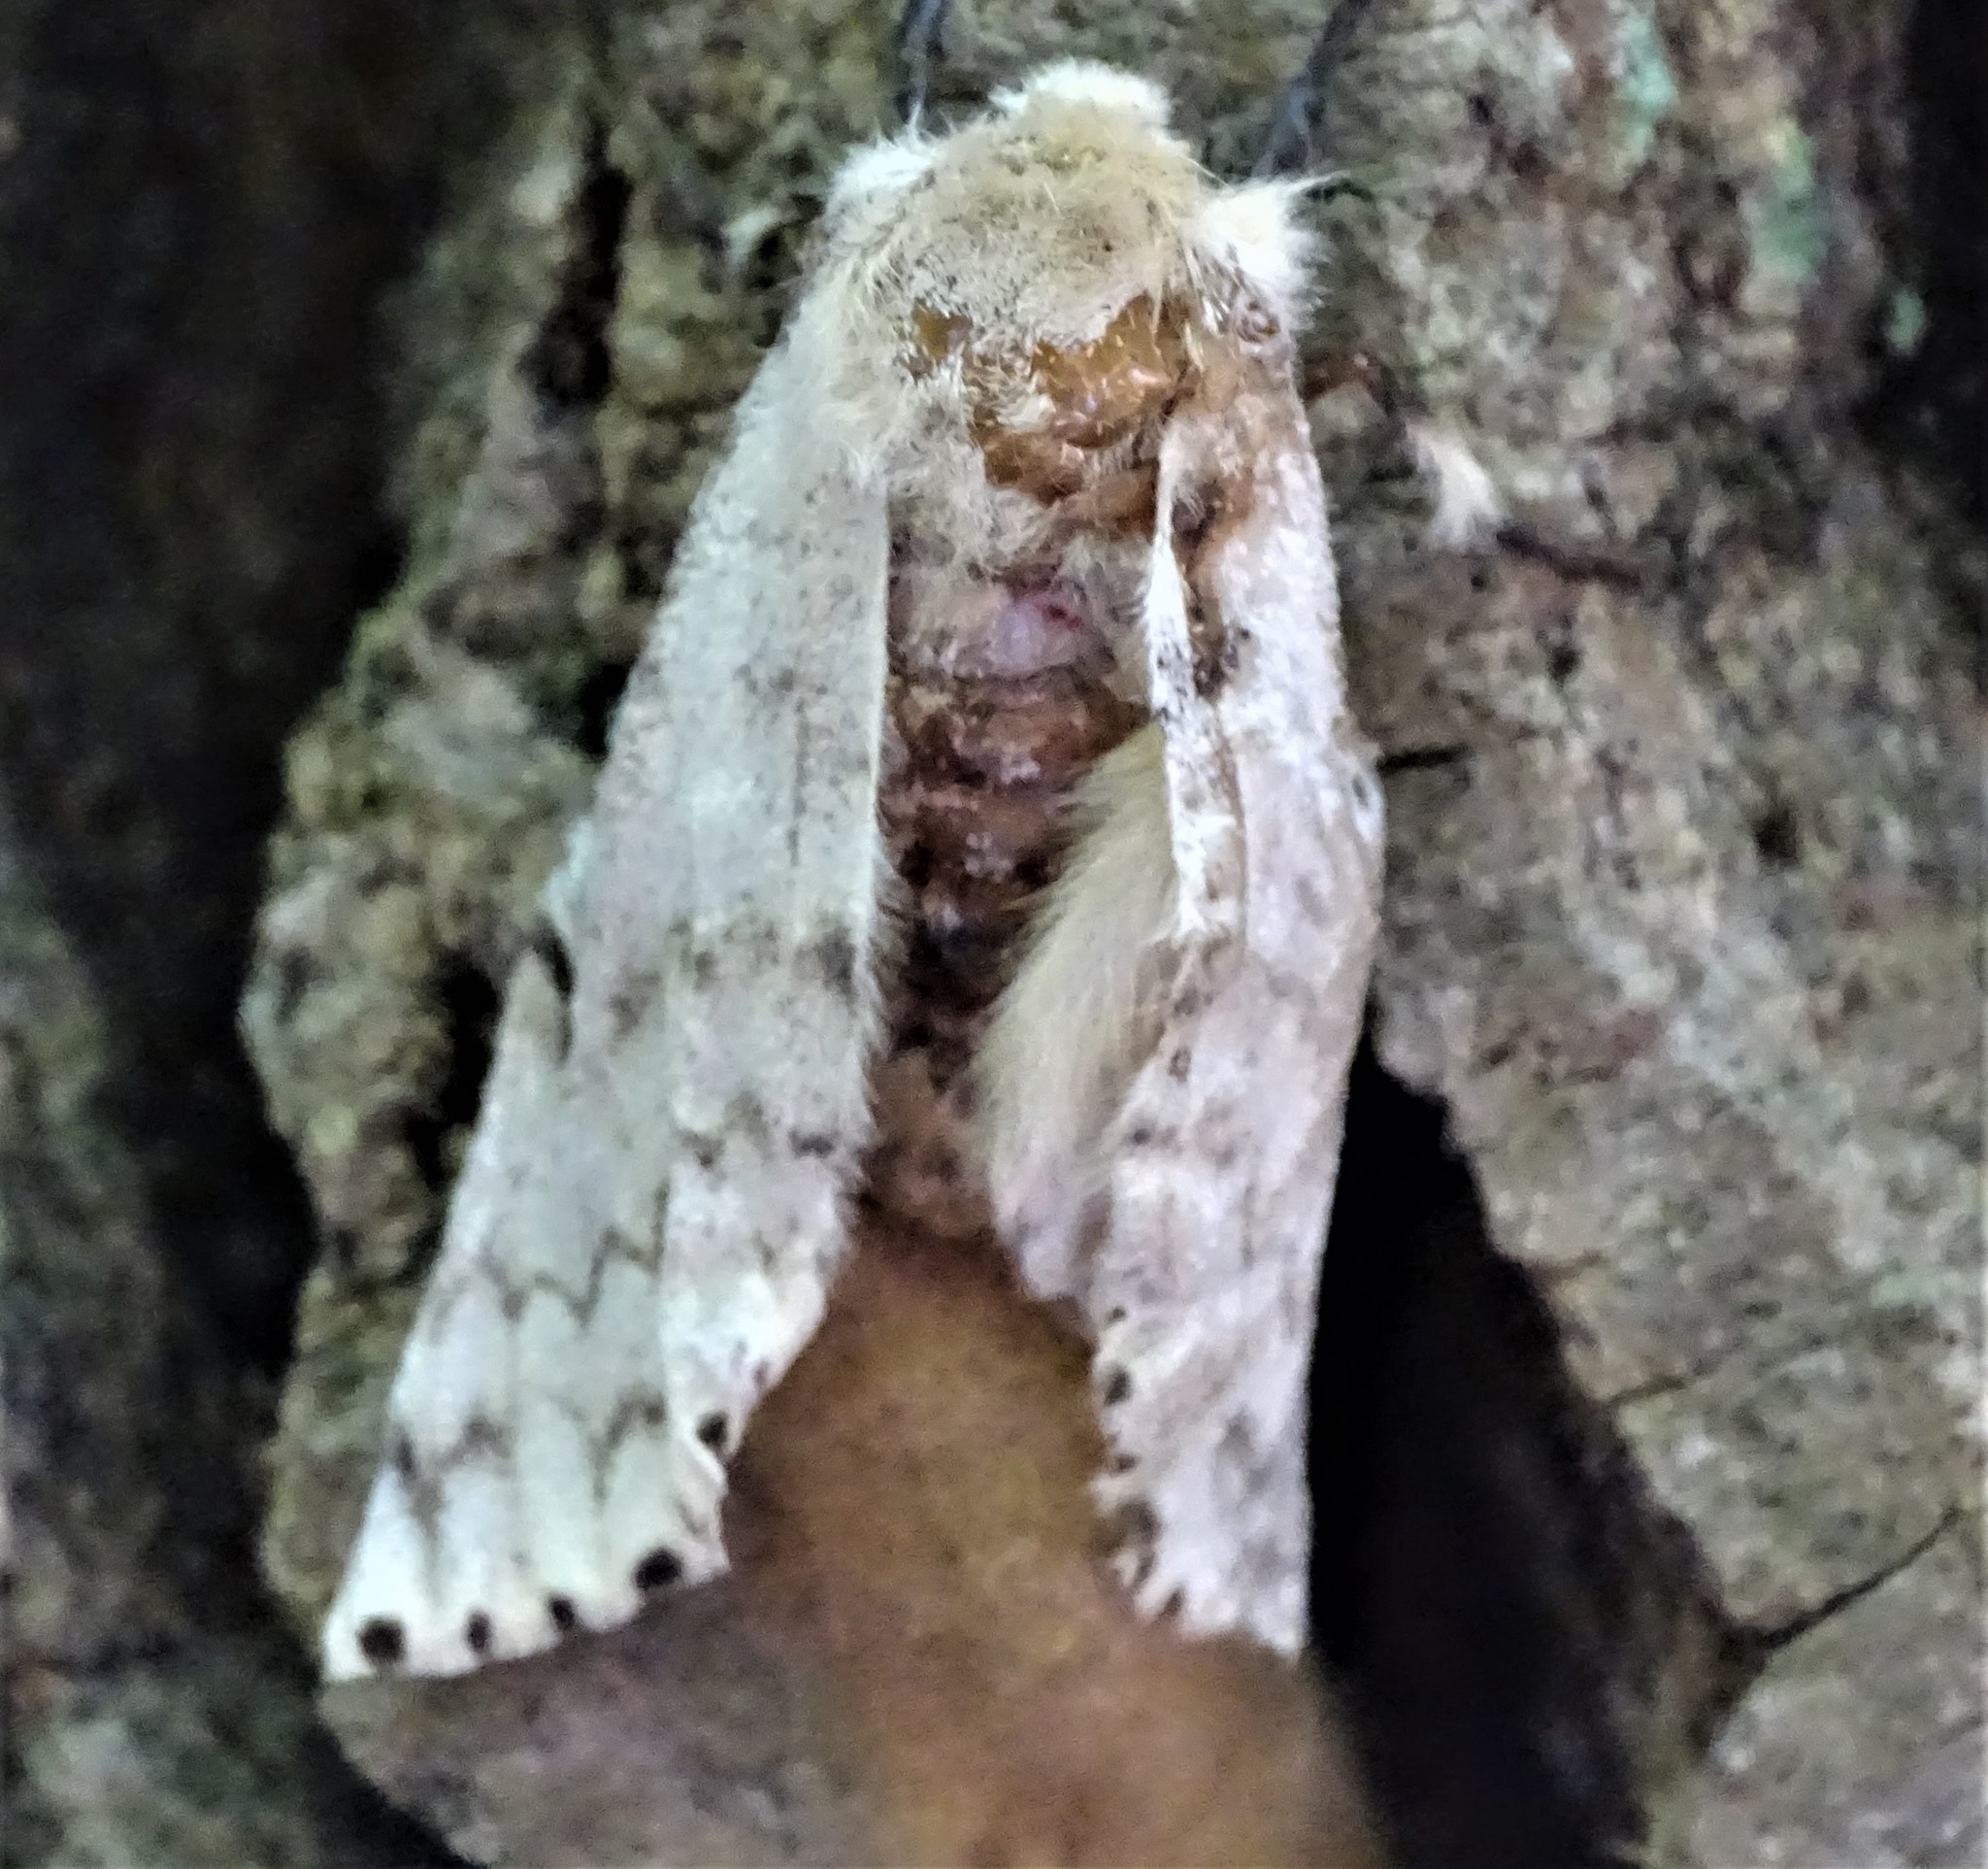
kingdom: Animalia
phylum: Arthropoda
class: Insecta
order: Lepidoptera
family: Erebidae
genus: Lymantria
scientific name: Lymantria dispar
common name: Gypsy moth
